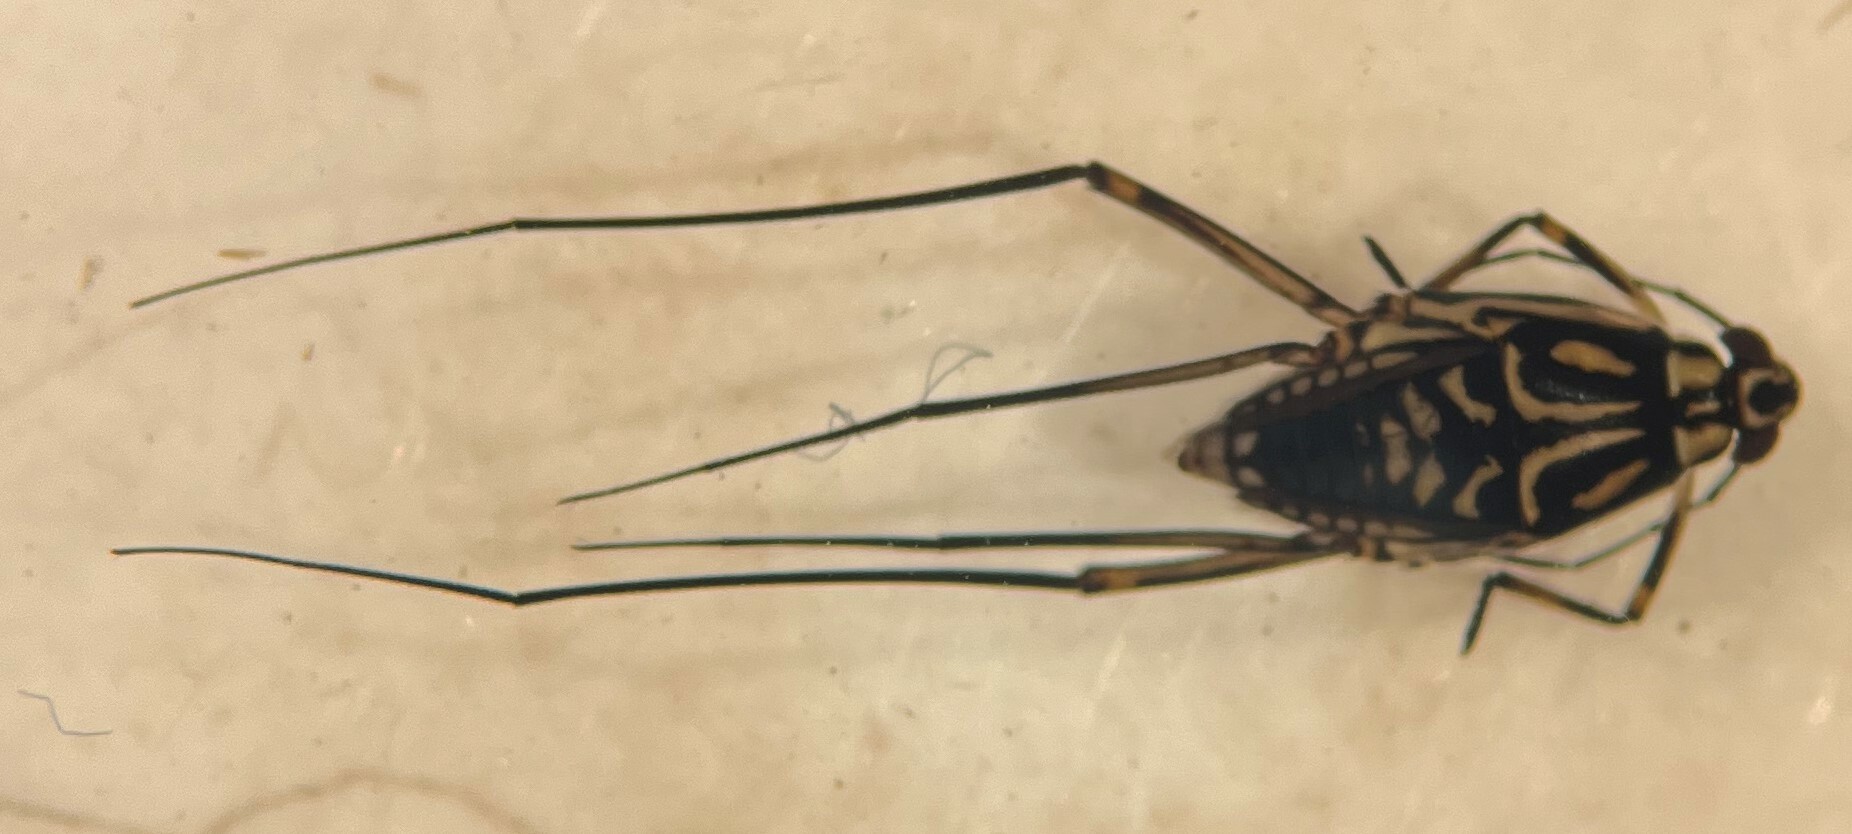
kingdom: Animalia
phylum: Arthropoda
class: Insecta
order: Hemiptera
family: Gerridae
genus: Trepobates
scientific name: Trepobates taylori
